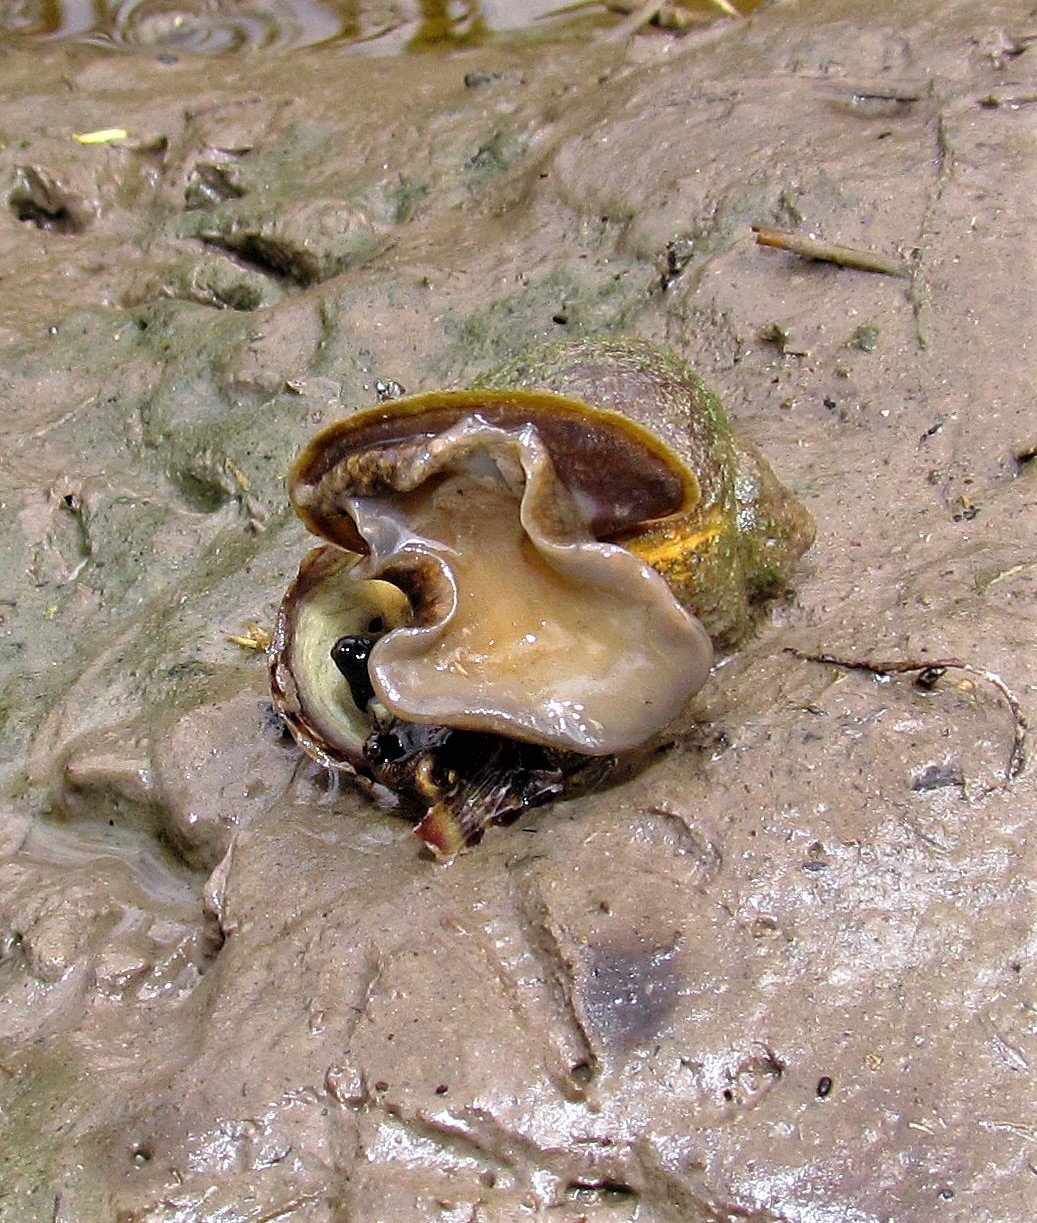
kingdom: Animalia
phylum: Mollusca
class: Gastropoda
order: Architaenioglossa
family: Ampullariidae
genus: Pomacea
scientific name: Pomacea canaliculata
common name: Channeled applesnail
